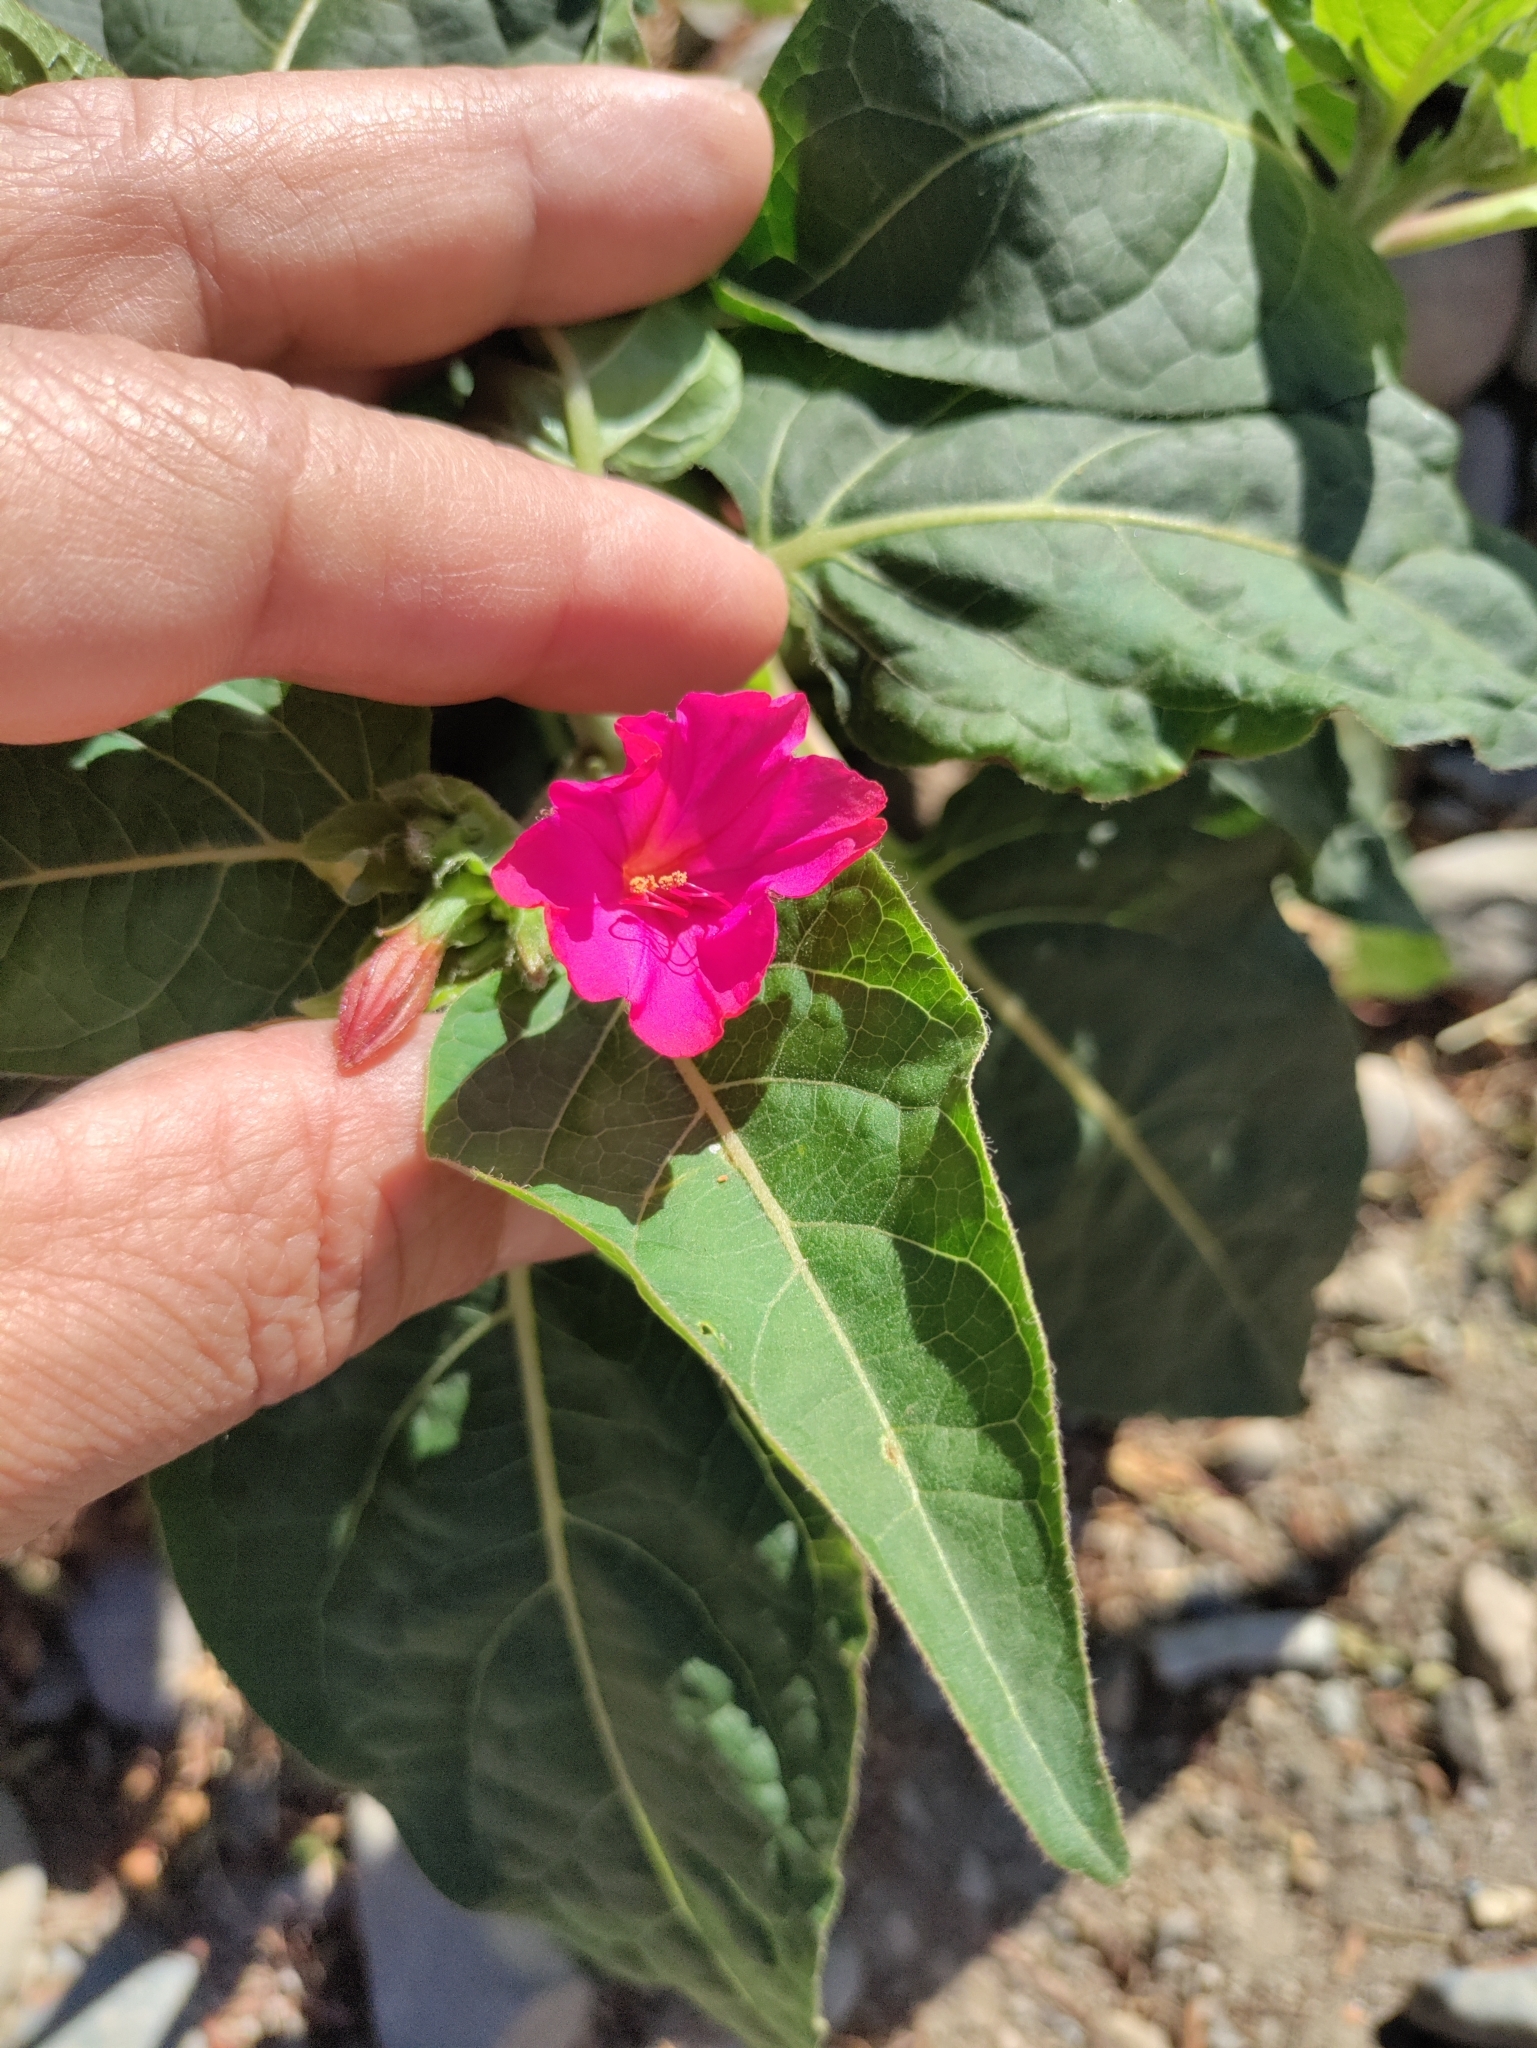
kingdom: Plantae
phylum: Tracheophyta
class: Magnoliopsida
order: Caryophyllales
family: Nyctaginaceae
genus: Mirabilis
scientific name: Mirabilis jalapa
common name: Marvel-of-peru
